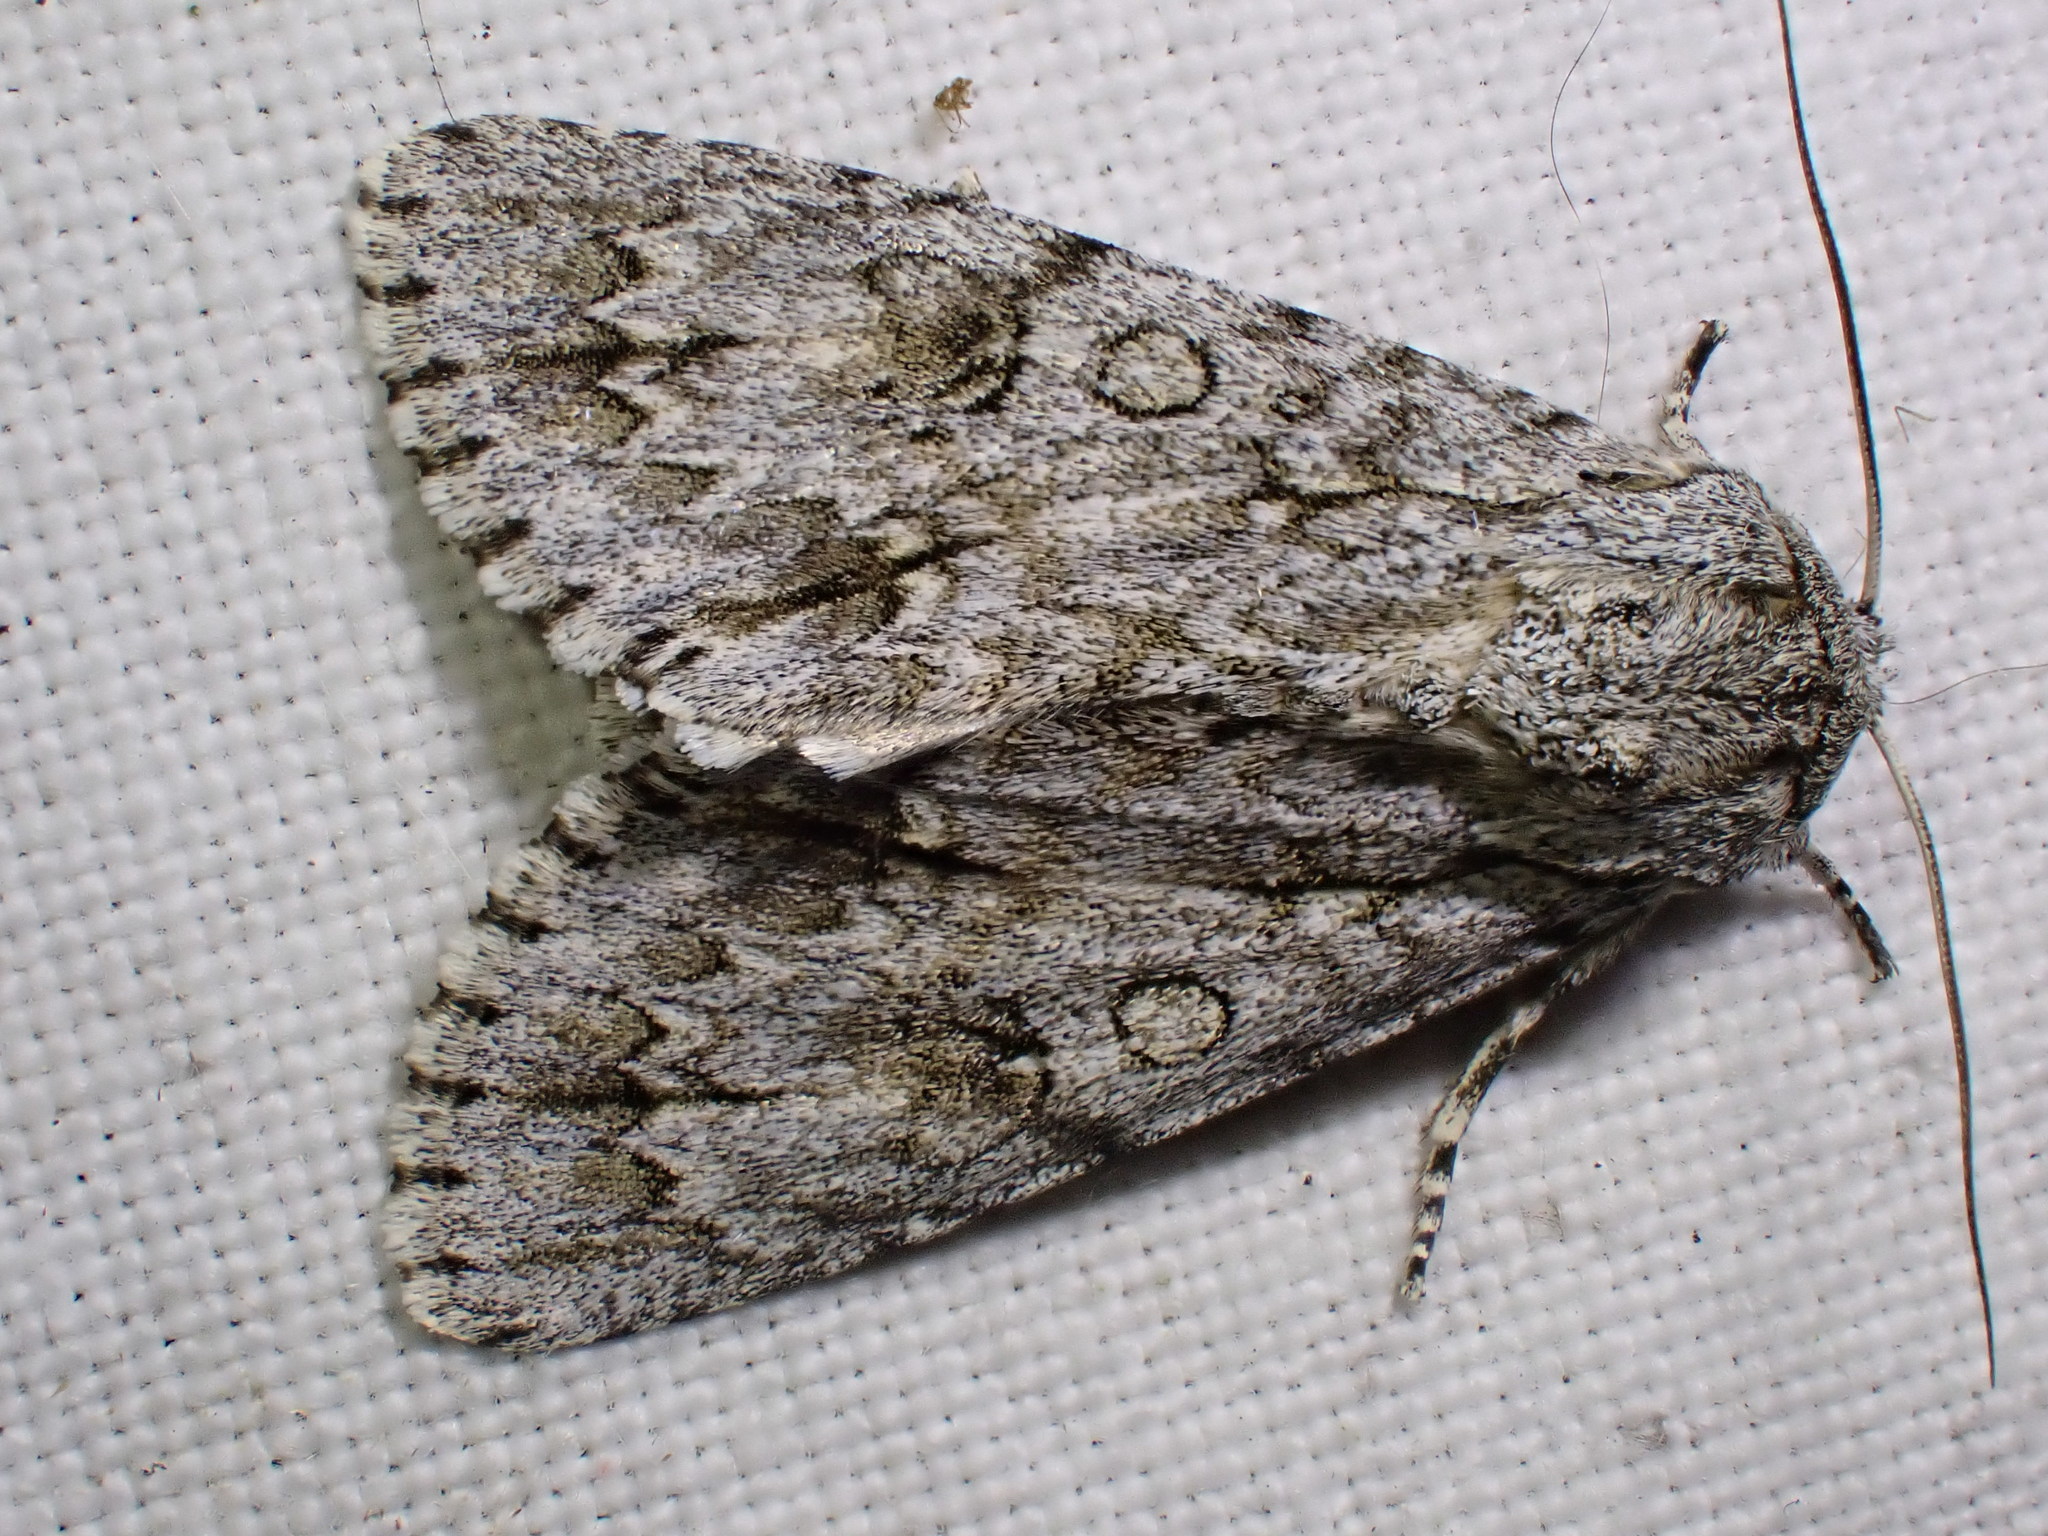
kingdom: Animalia
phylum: Arthropoda
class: Insecta
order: Lepidoptera
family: Noctuidae
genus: Acronicta
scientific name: Acronicta aceris
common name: Sycamore
